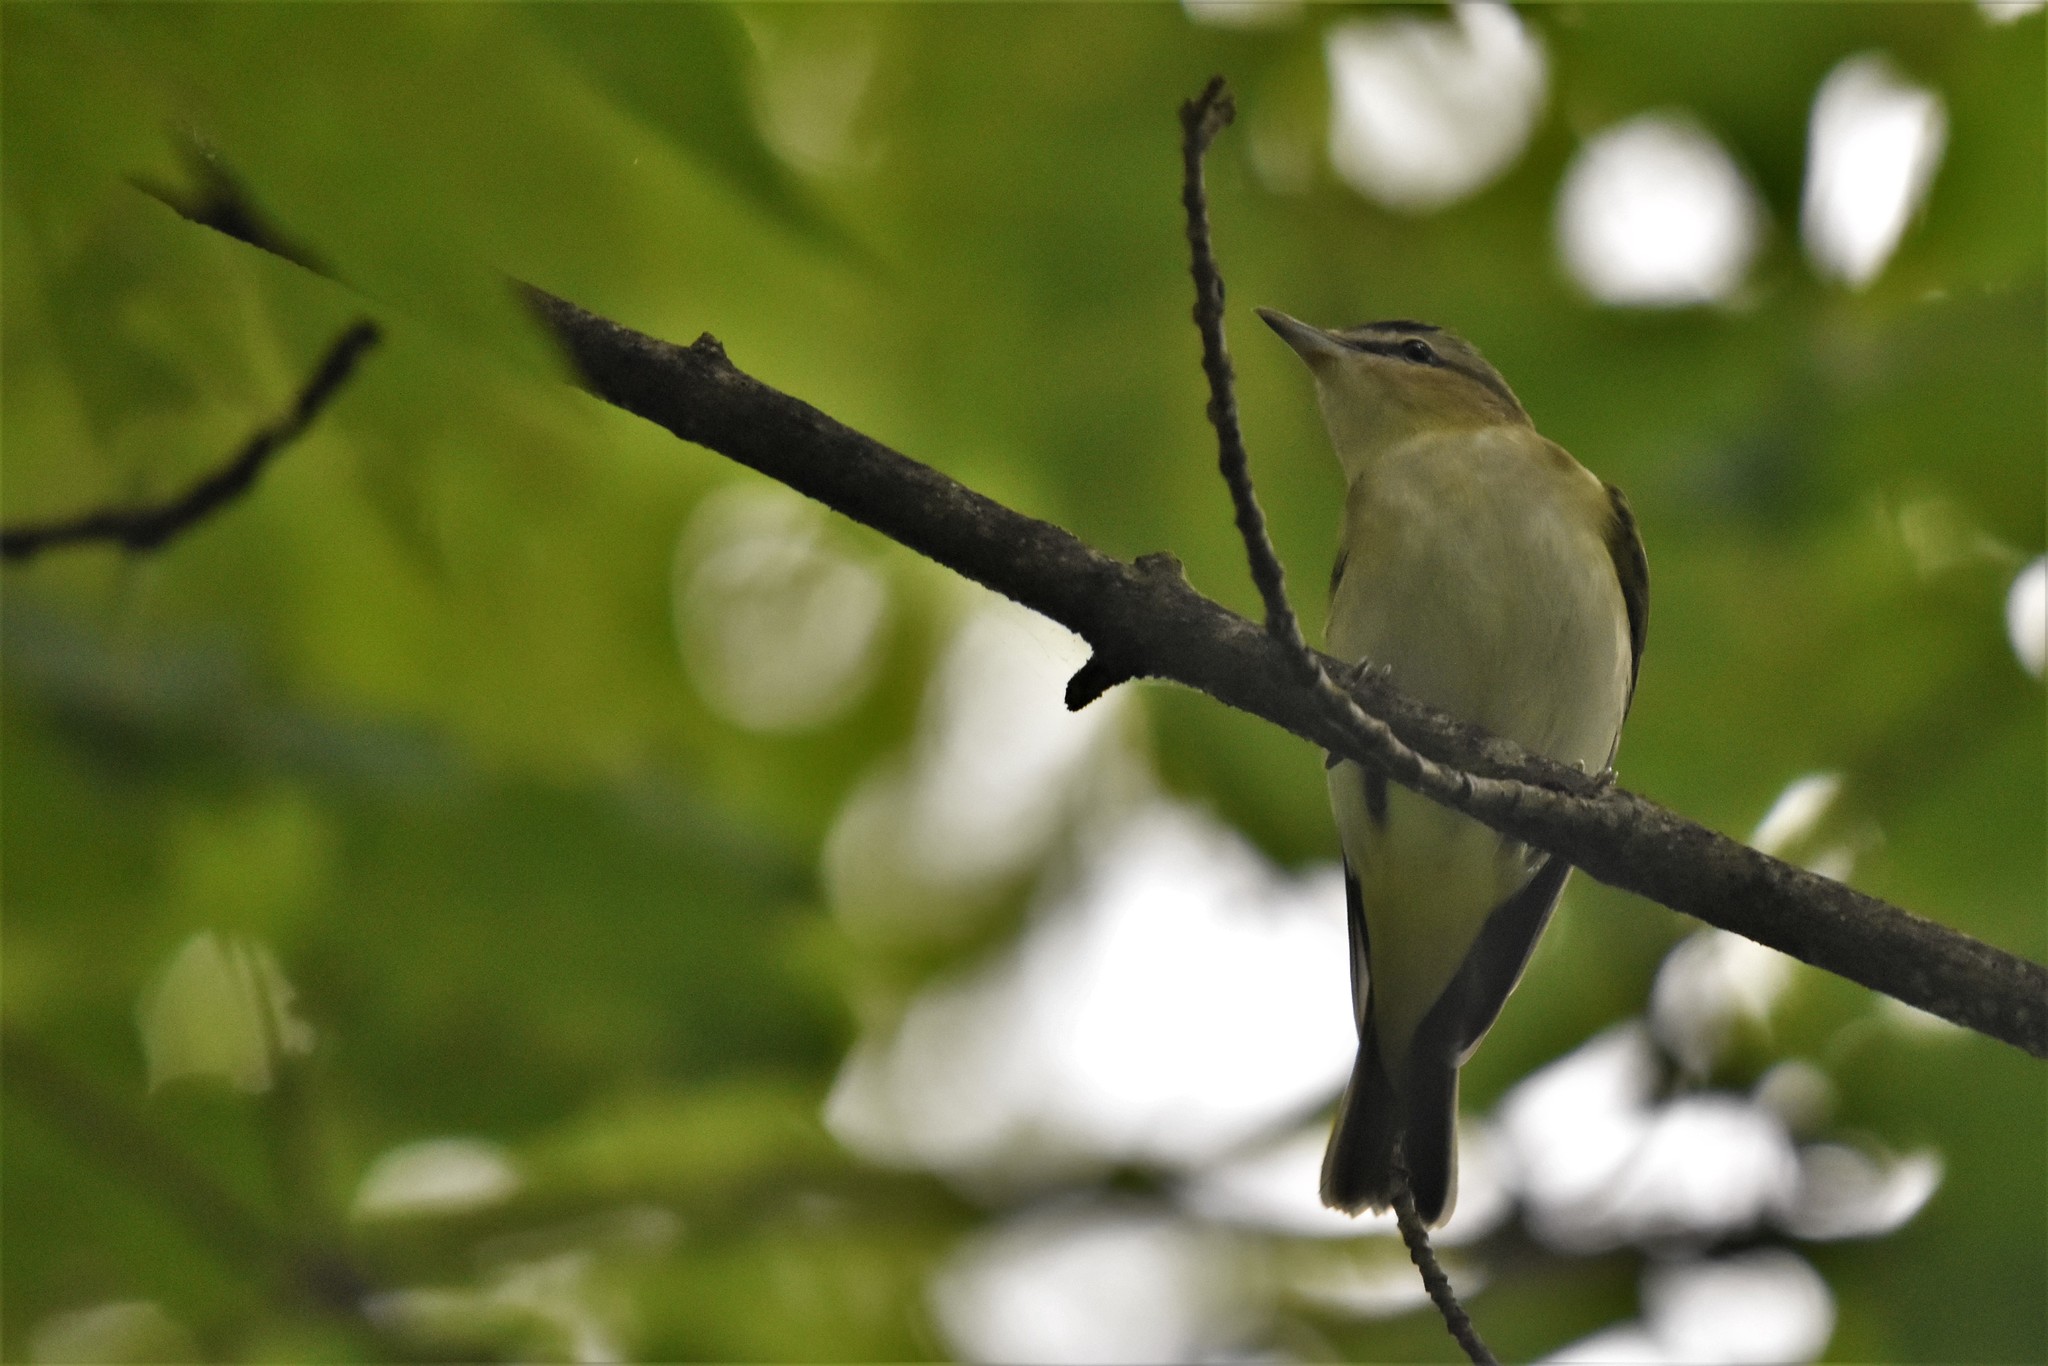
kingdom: Animalia
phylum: Chordata
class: Aves
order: Passeriformes
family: Vireonidae
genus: Vireo
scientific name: Vireo olivaceus
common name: Red-eyed vireo
